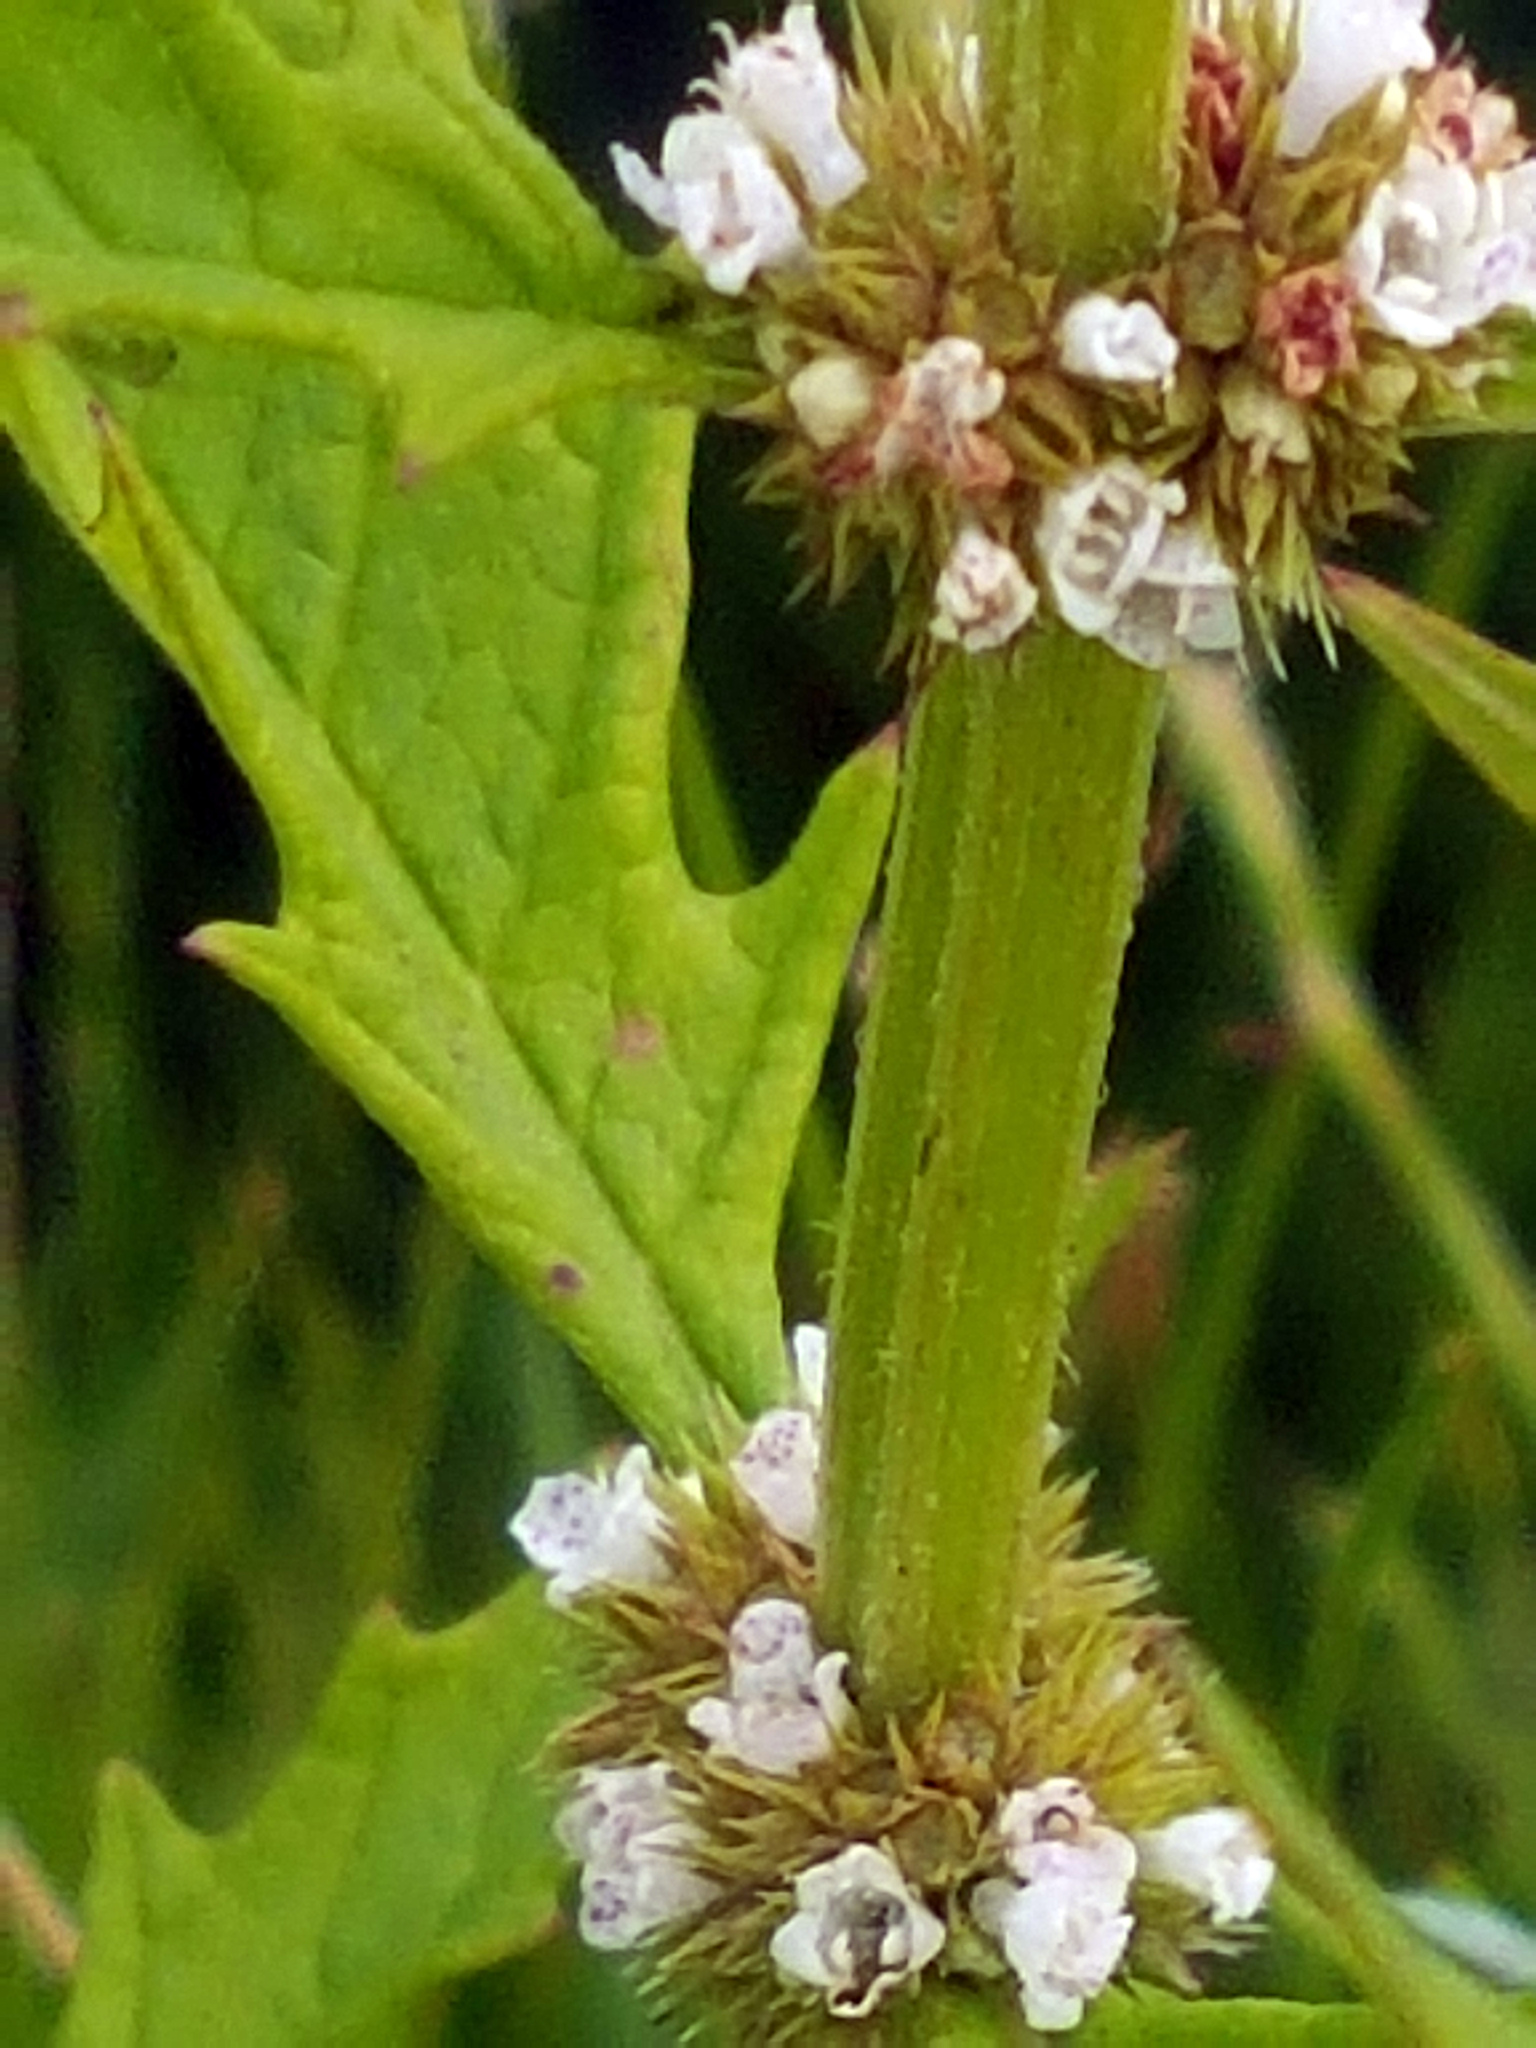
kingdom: Plantae
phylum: Tracheophyta
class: Magnoliopsida
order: Lamiales
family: Lamiaceae
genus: Lycopus
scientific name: Lycopus europaeus
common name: European bugleweed
